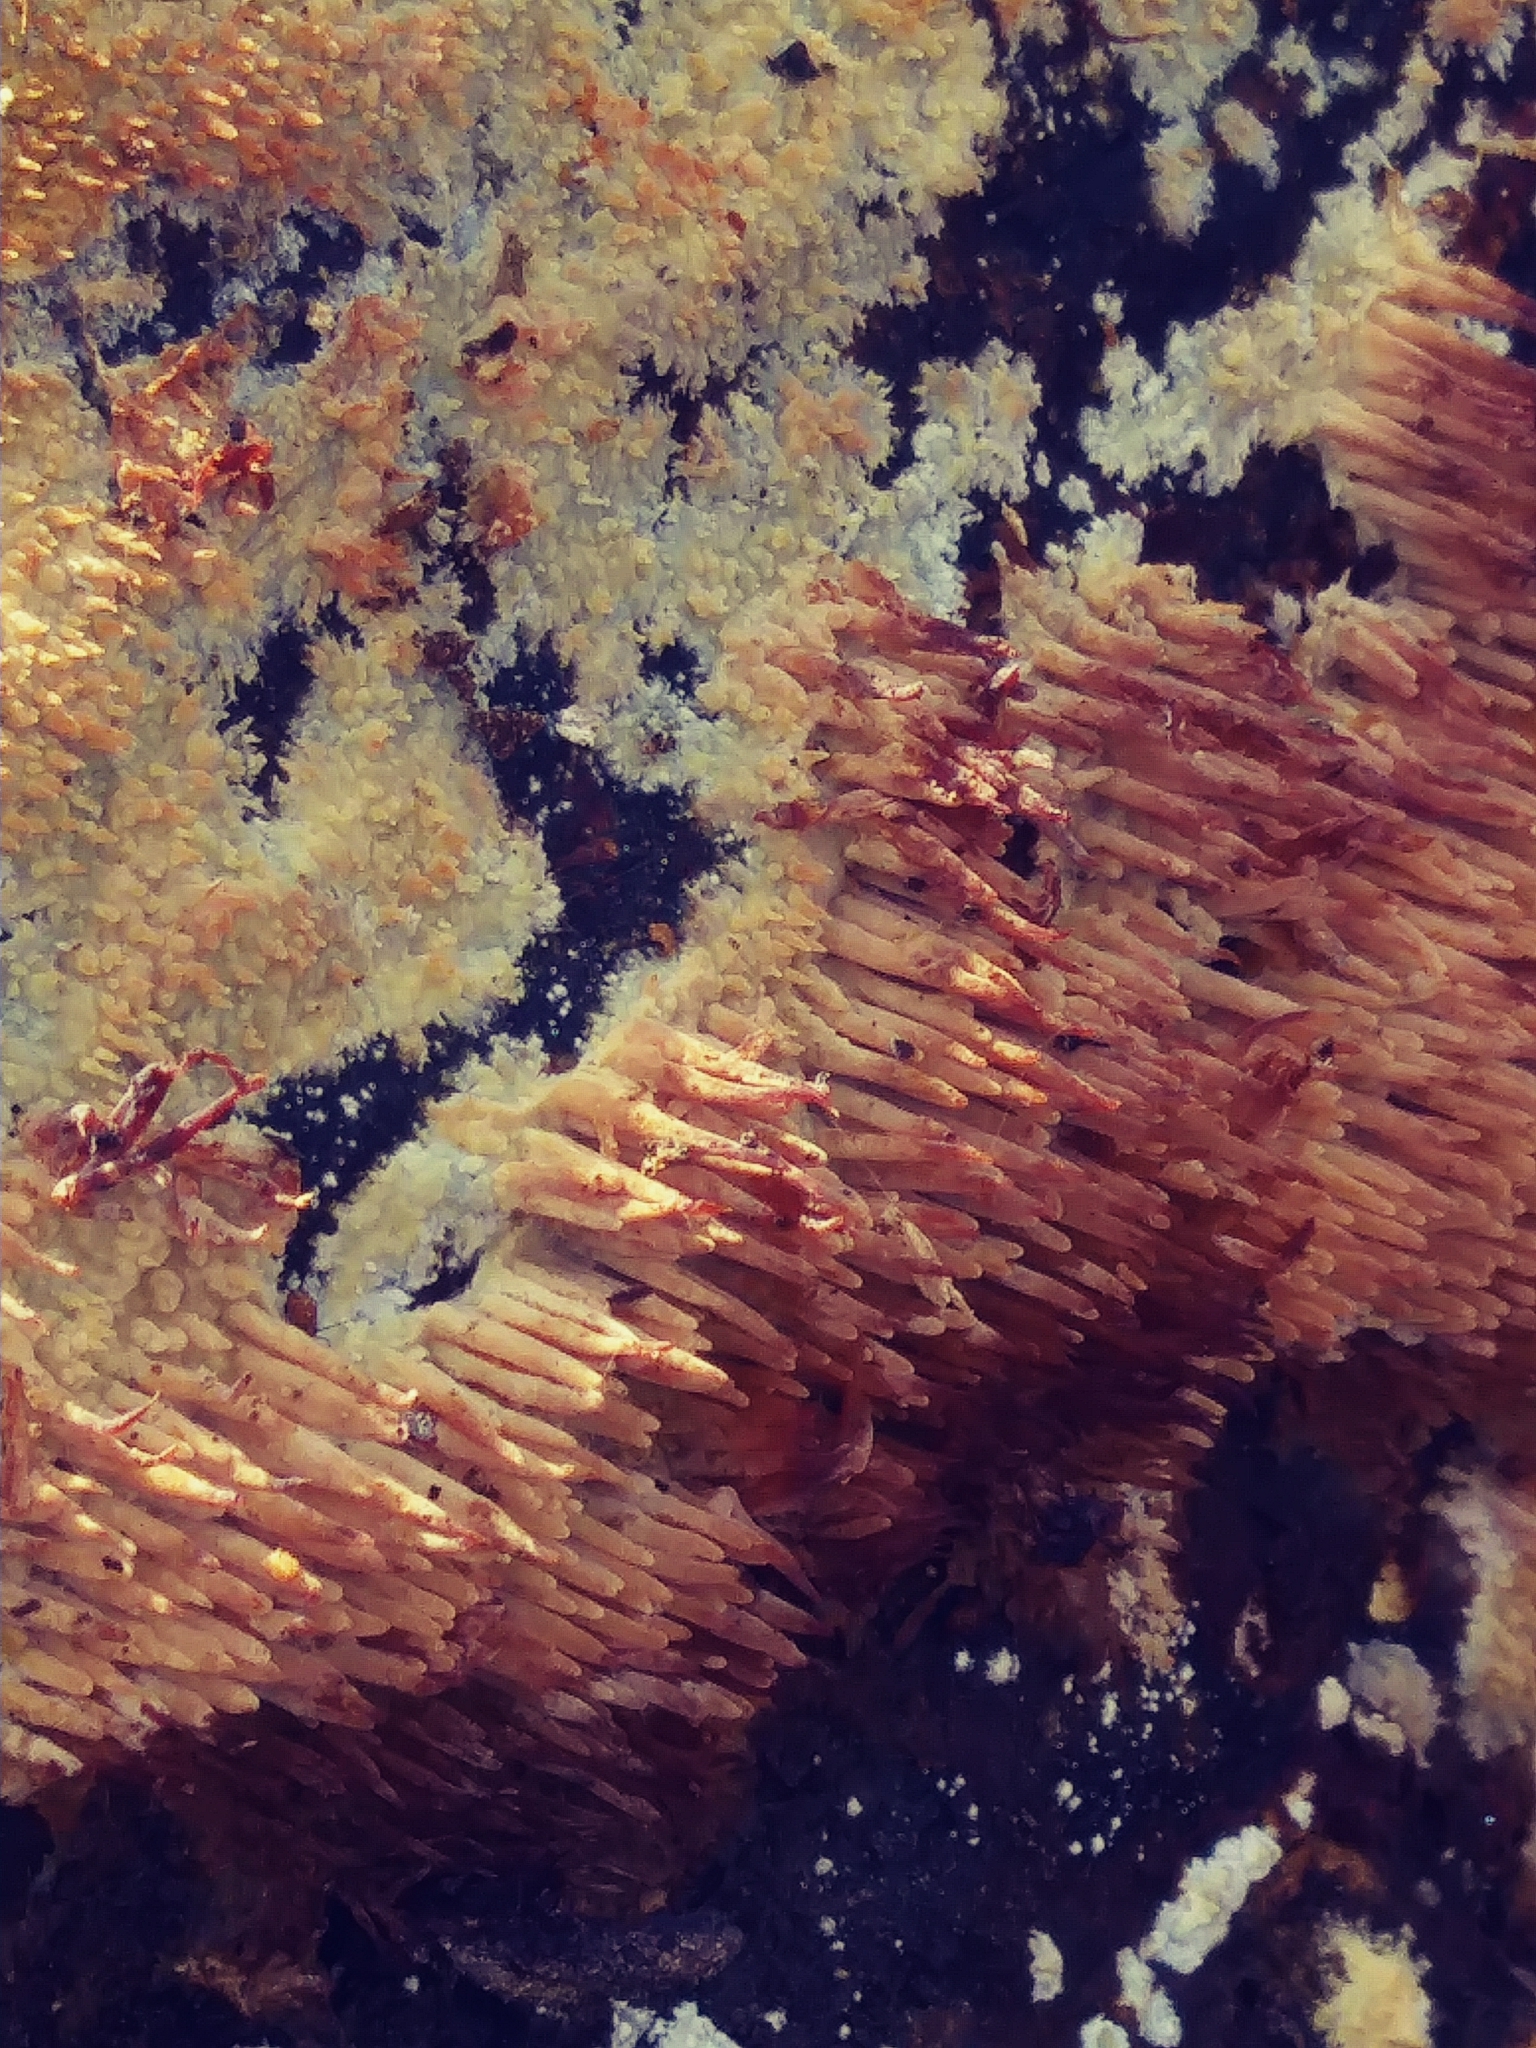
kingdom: Fungi
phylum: Basidiomycota
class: Agaricomycetes
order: Agaricales
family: Radulomycetaceae
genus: Radulomyces
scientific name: Radulomyces copelandii
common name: Asian beauty
